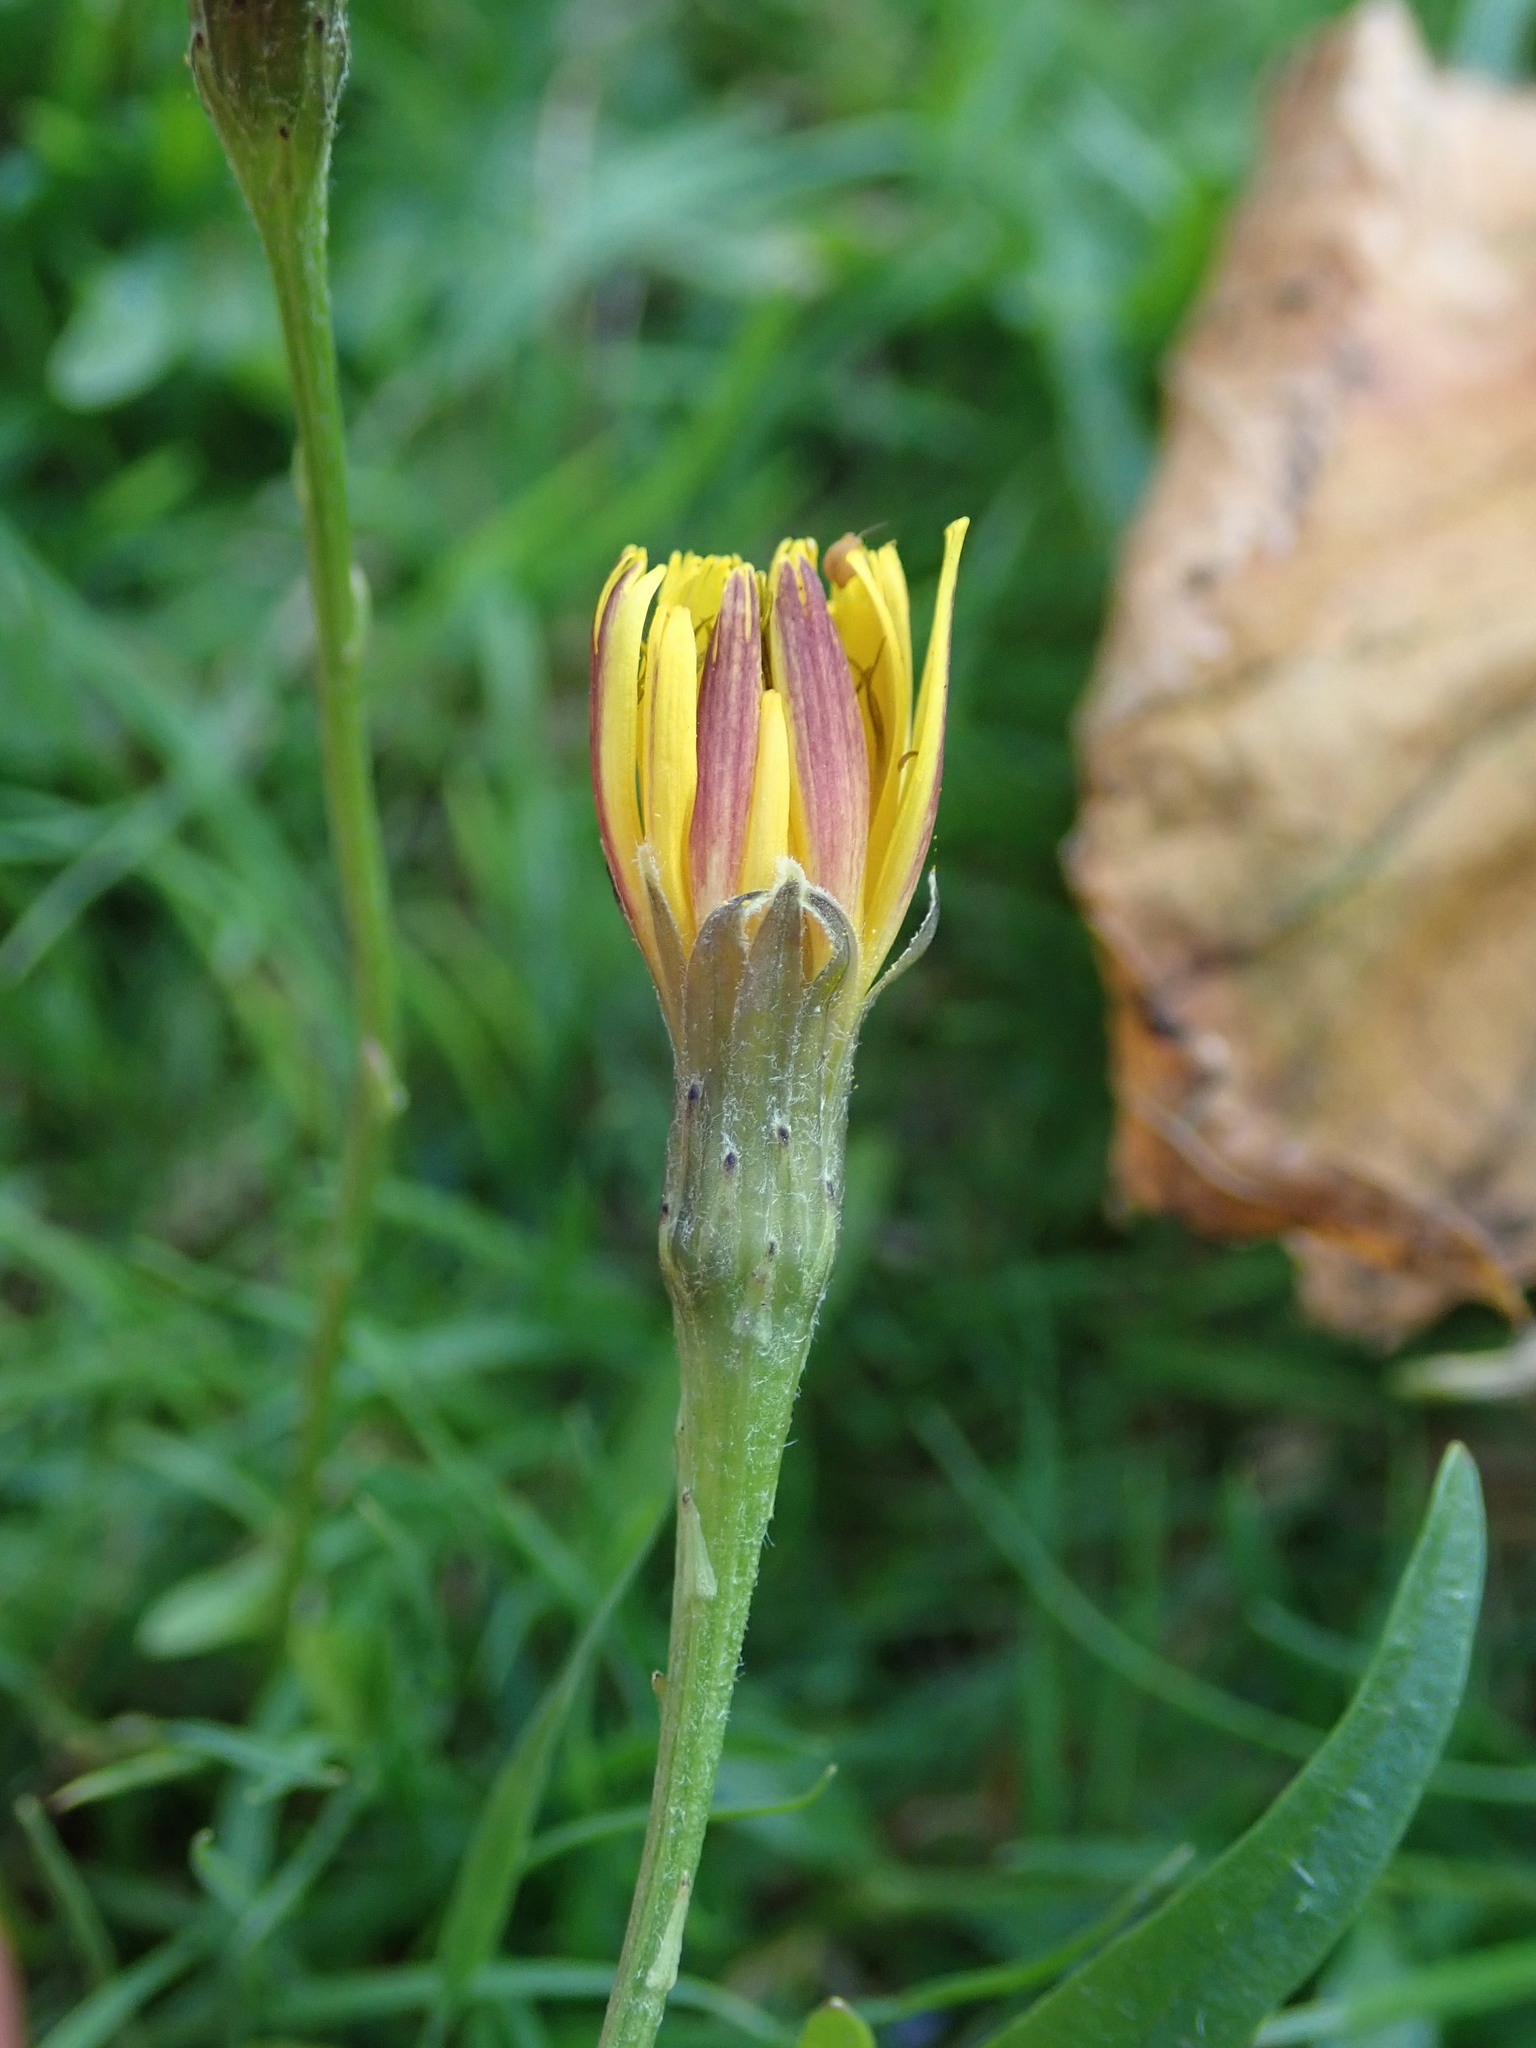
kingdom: Plantae
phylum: Tracheophyta
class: Magnoliopsida
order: Asterales
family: Asteraceae
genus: Scorzoneroides
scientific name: Scorzoneroides autumnalis
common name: Autumn hawkbit
